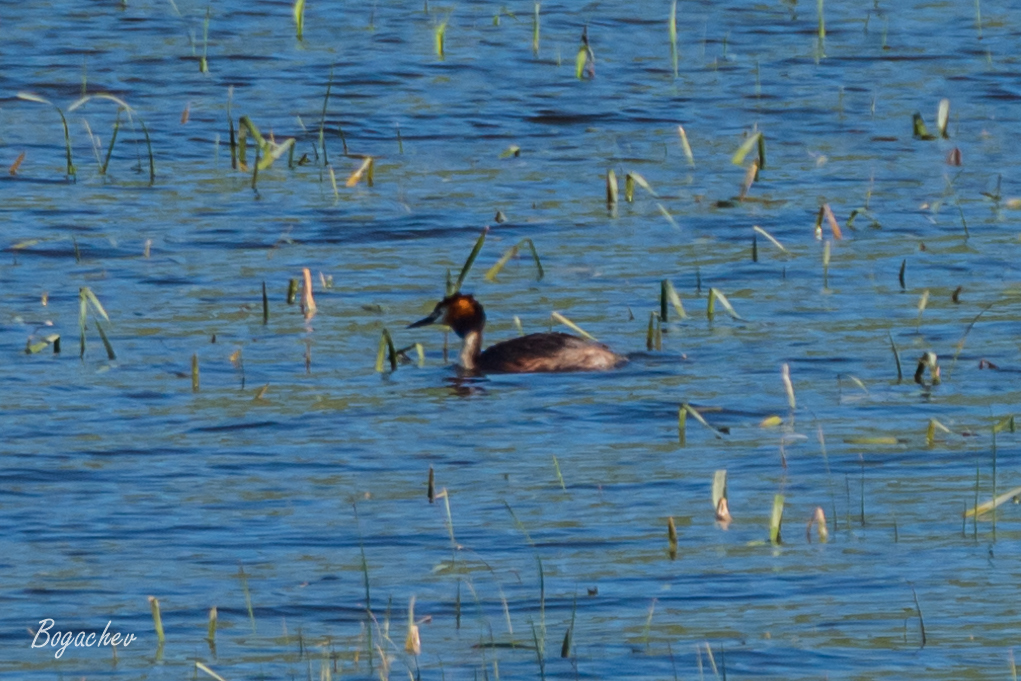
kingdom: Animalia
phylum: Chordata
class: Aves
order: Podicipediformes
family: Podicipedidae
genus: Podiceps
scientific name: Podiceps cristatus
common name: Great crested grebe
